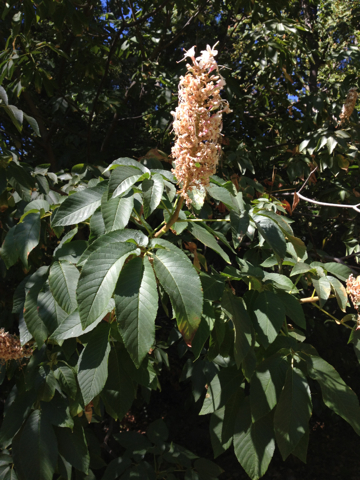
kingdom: Plantae
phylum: Tracheophyta
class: Magnoliopsida
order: Sapindales
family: Sapindaceae
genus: Aesculus
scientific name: Aesculus californica
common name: California buckeye
